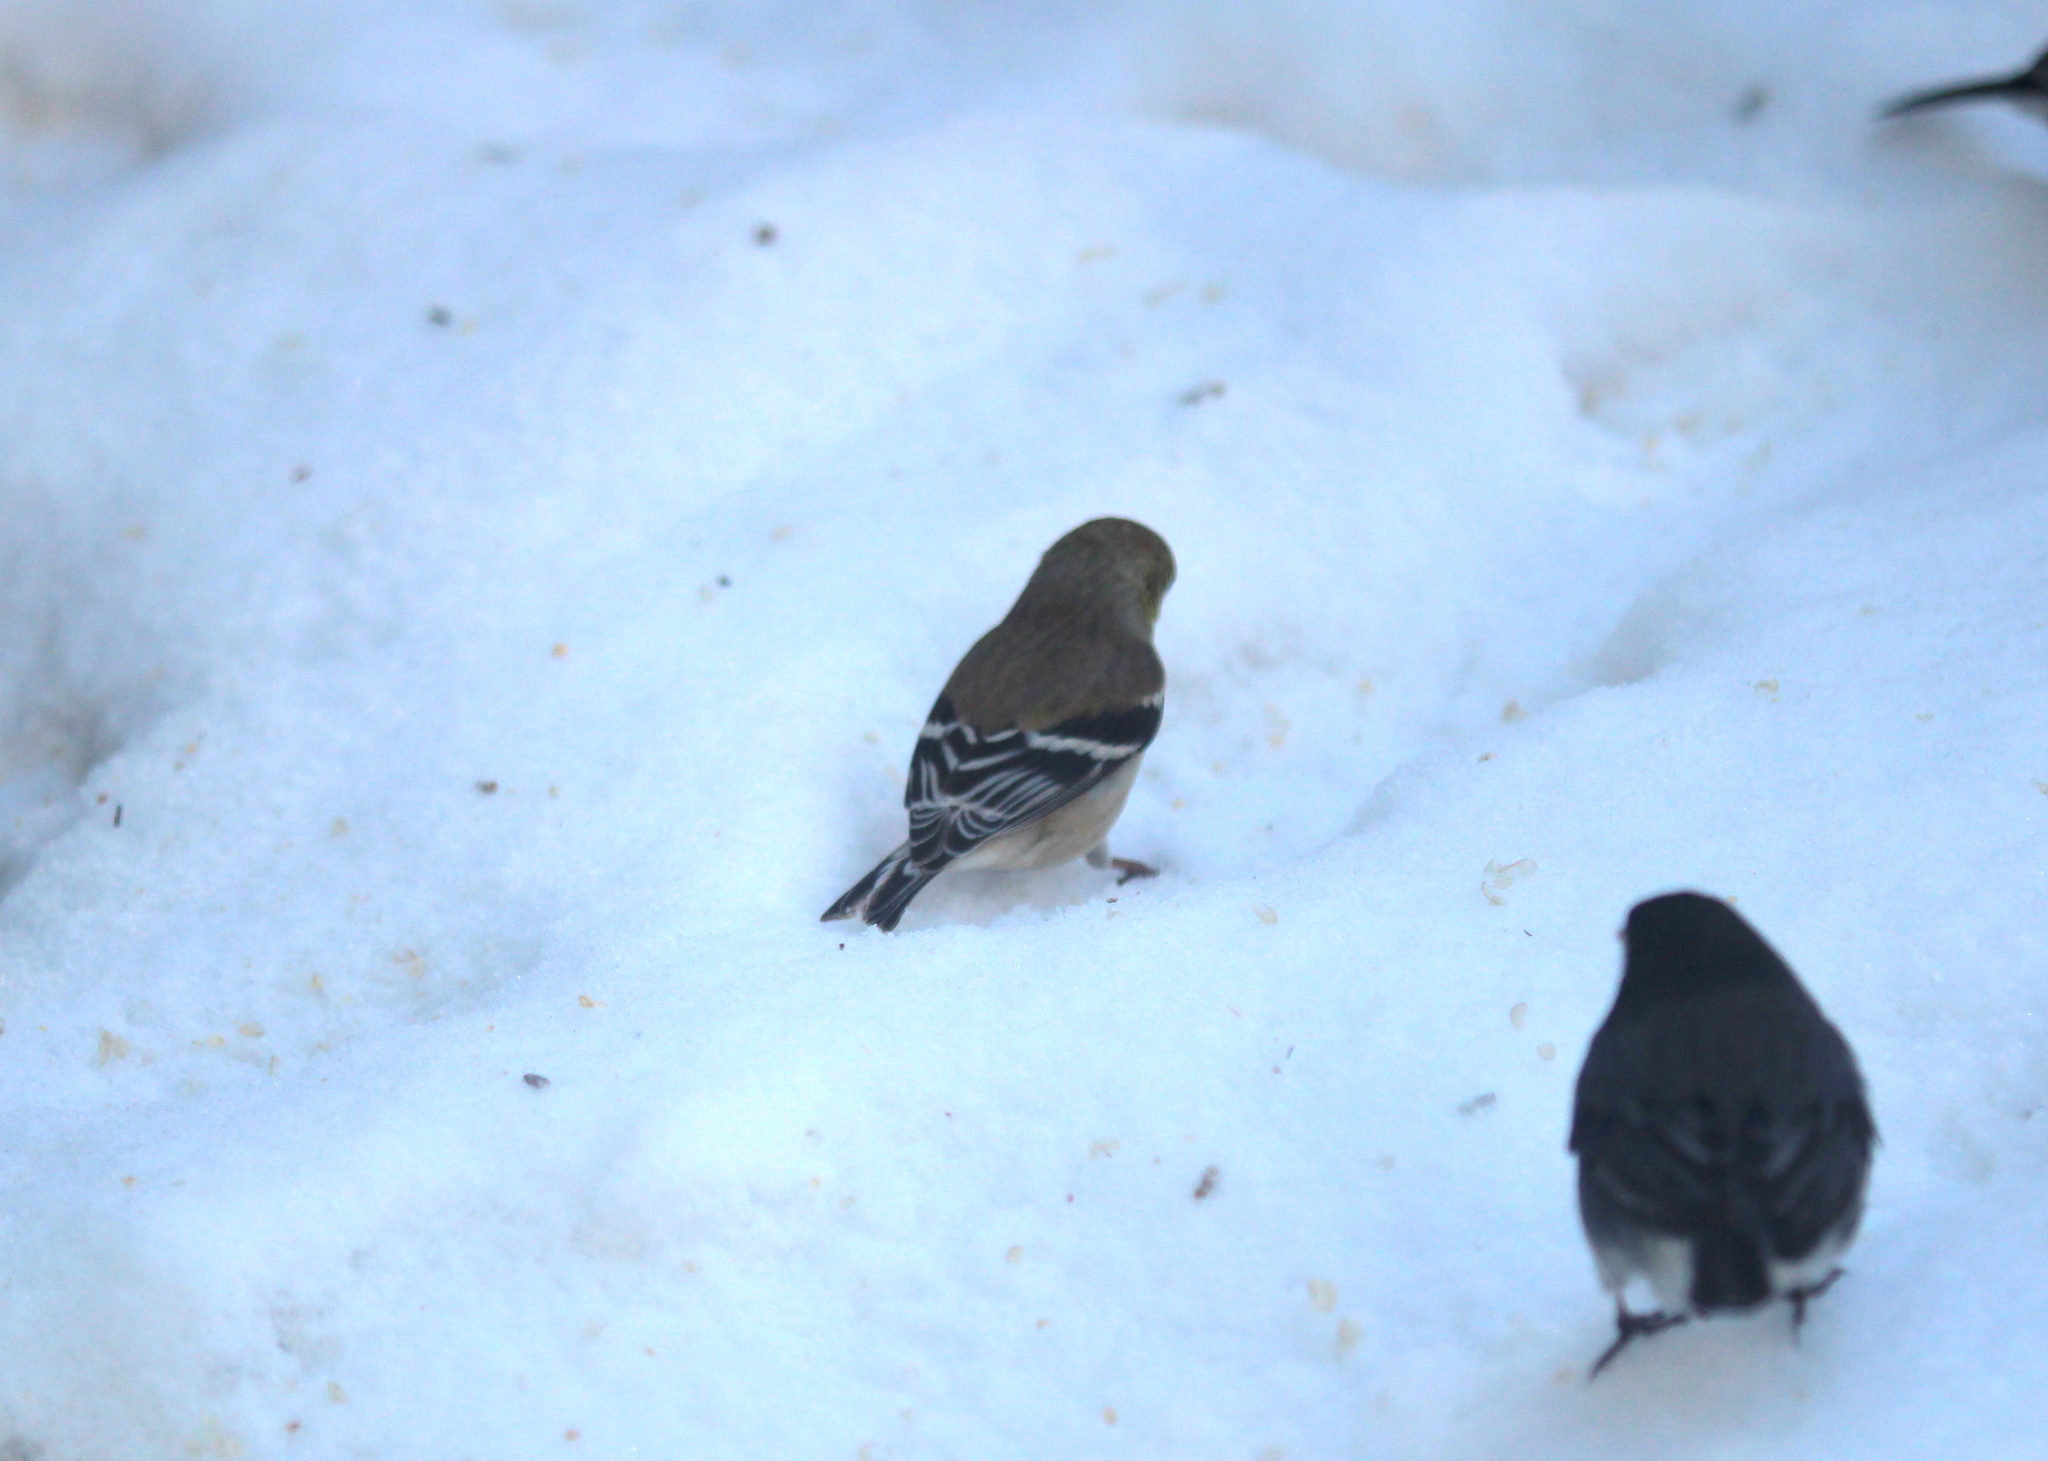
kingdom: Animalia
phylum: Chordata
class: Aves
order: Passeriformes
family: Fringillidae
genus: Spinus
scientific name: Spinus tristis
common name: American goldfinch
